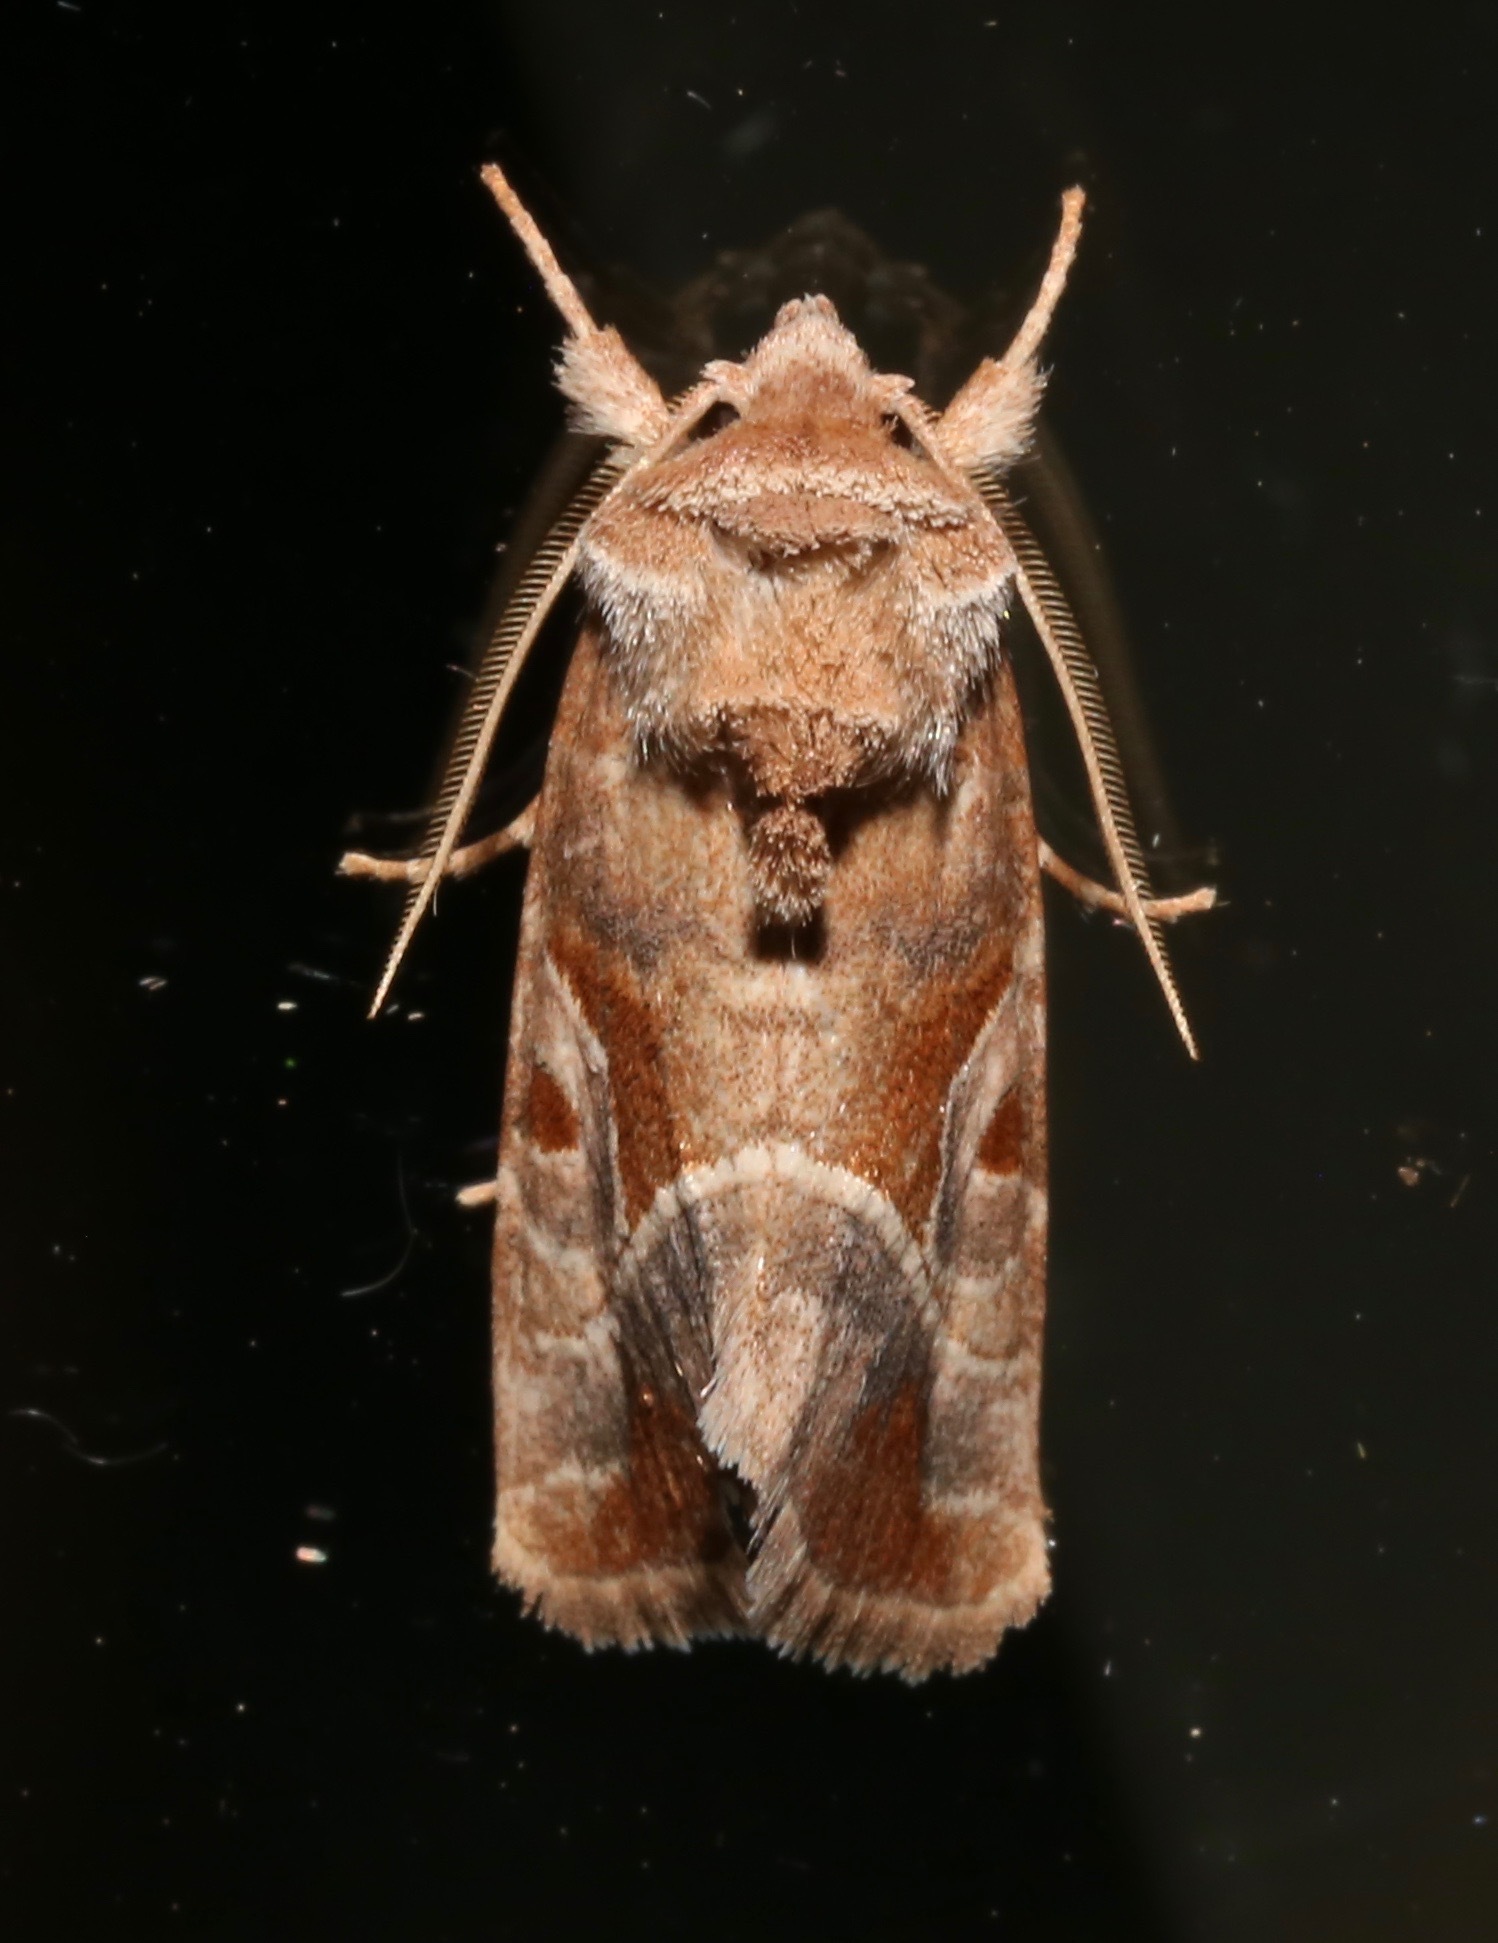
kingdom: Animalia
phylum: Arthropoda
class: Insecta
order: Lepidoptera
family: Noctuidae
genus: Hexorthodes
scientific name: Hexorthodes accurata
